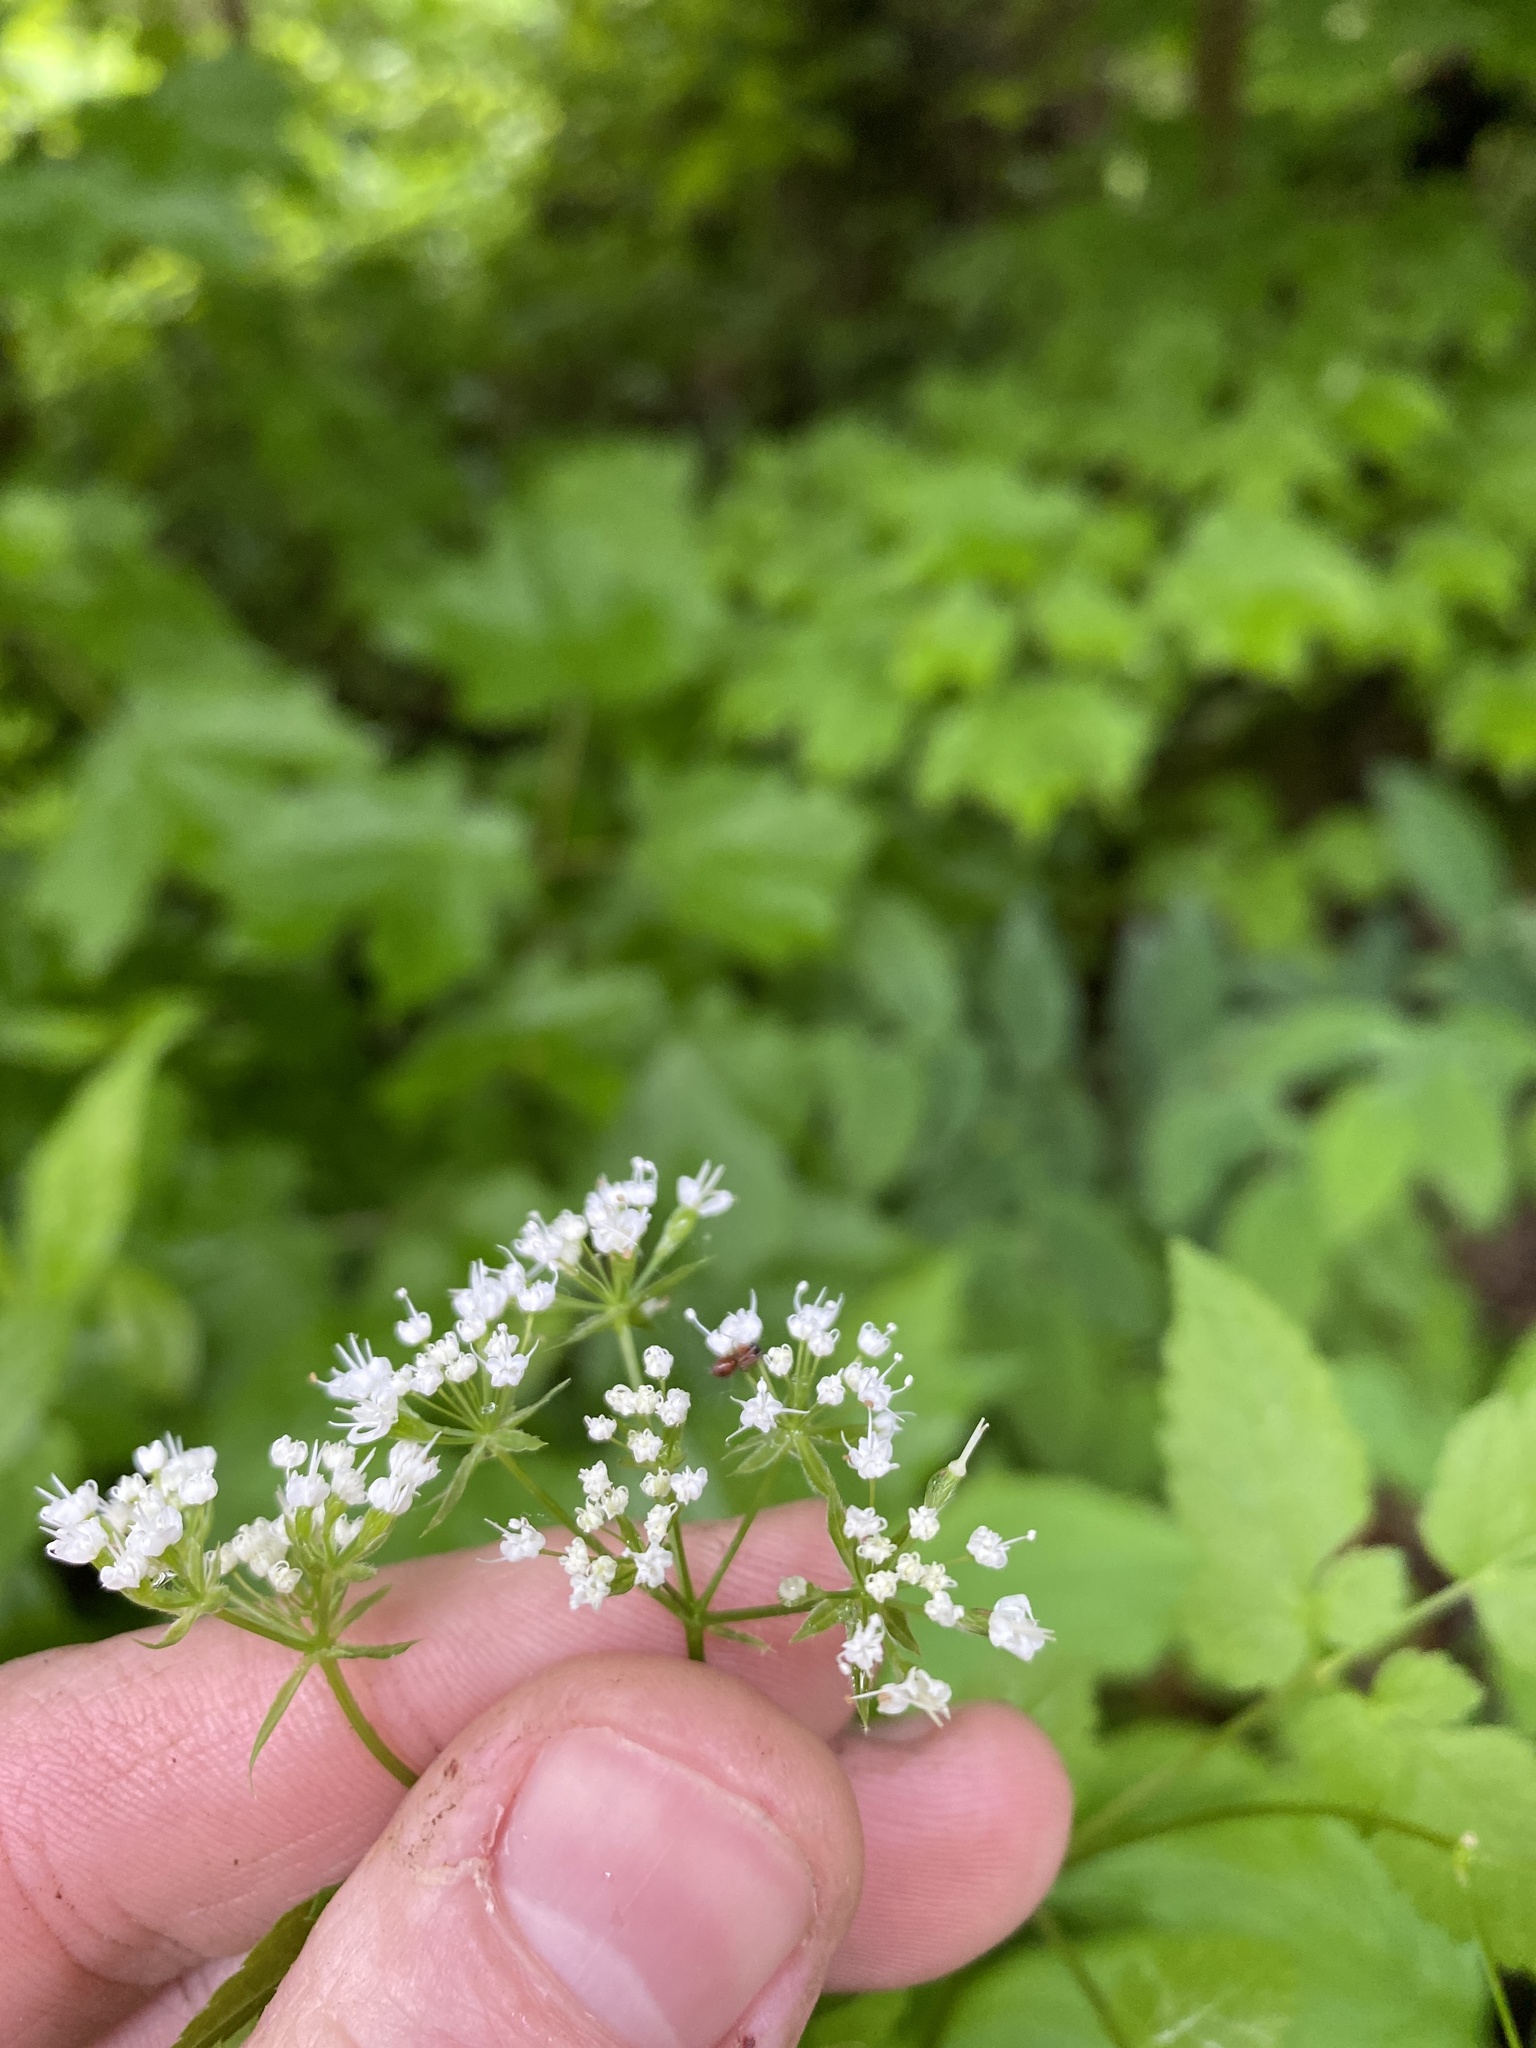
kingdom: Plantae
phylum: Tracheophyta
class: Magnoliopsida
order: Apiales
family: Apiaceae
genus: Osmorhiza
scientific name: Osmorhiza longistylis
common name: Smooth sweet cicely
